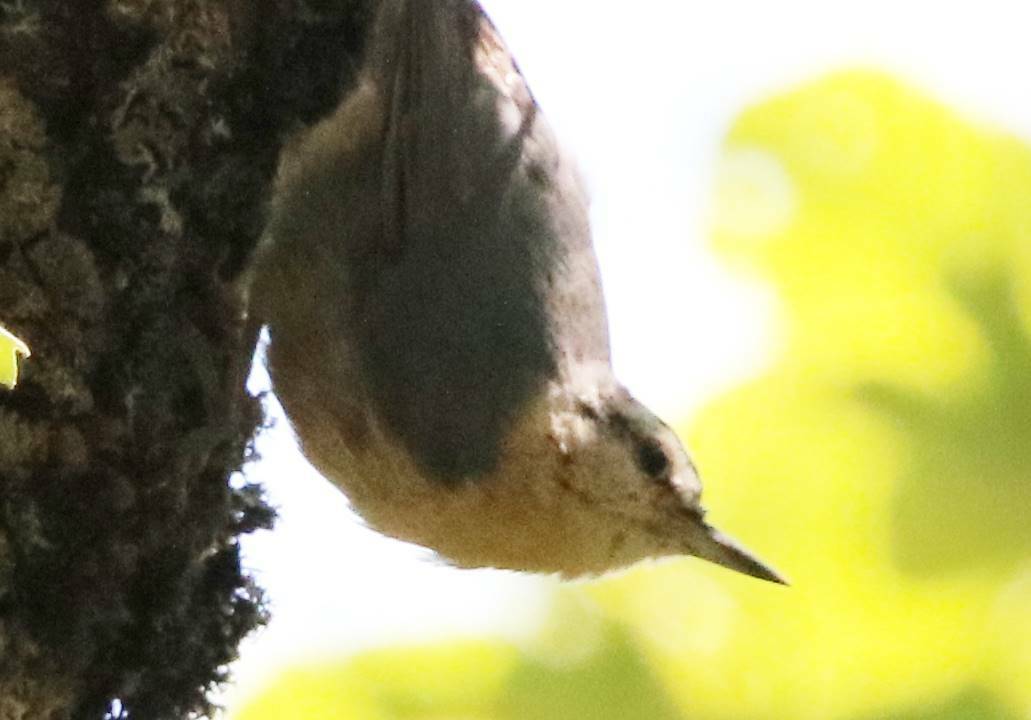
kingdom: Animalia
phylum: Chordata
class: Aves
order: Passeriformes
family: Sittidae
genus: Sitta
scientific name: Sitta ledanti
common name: Algerian nuthatch
